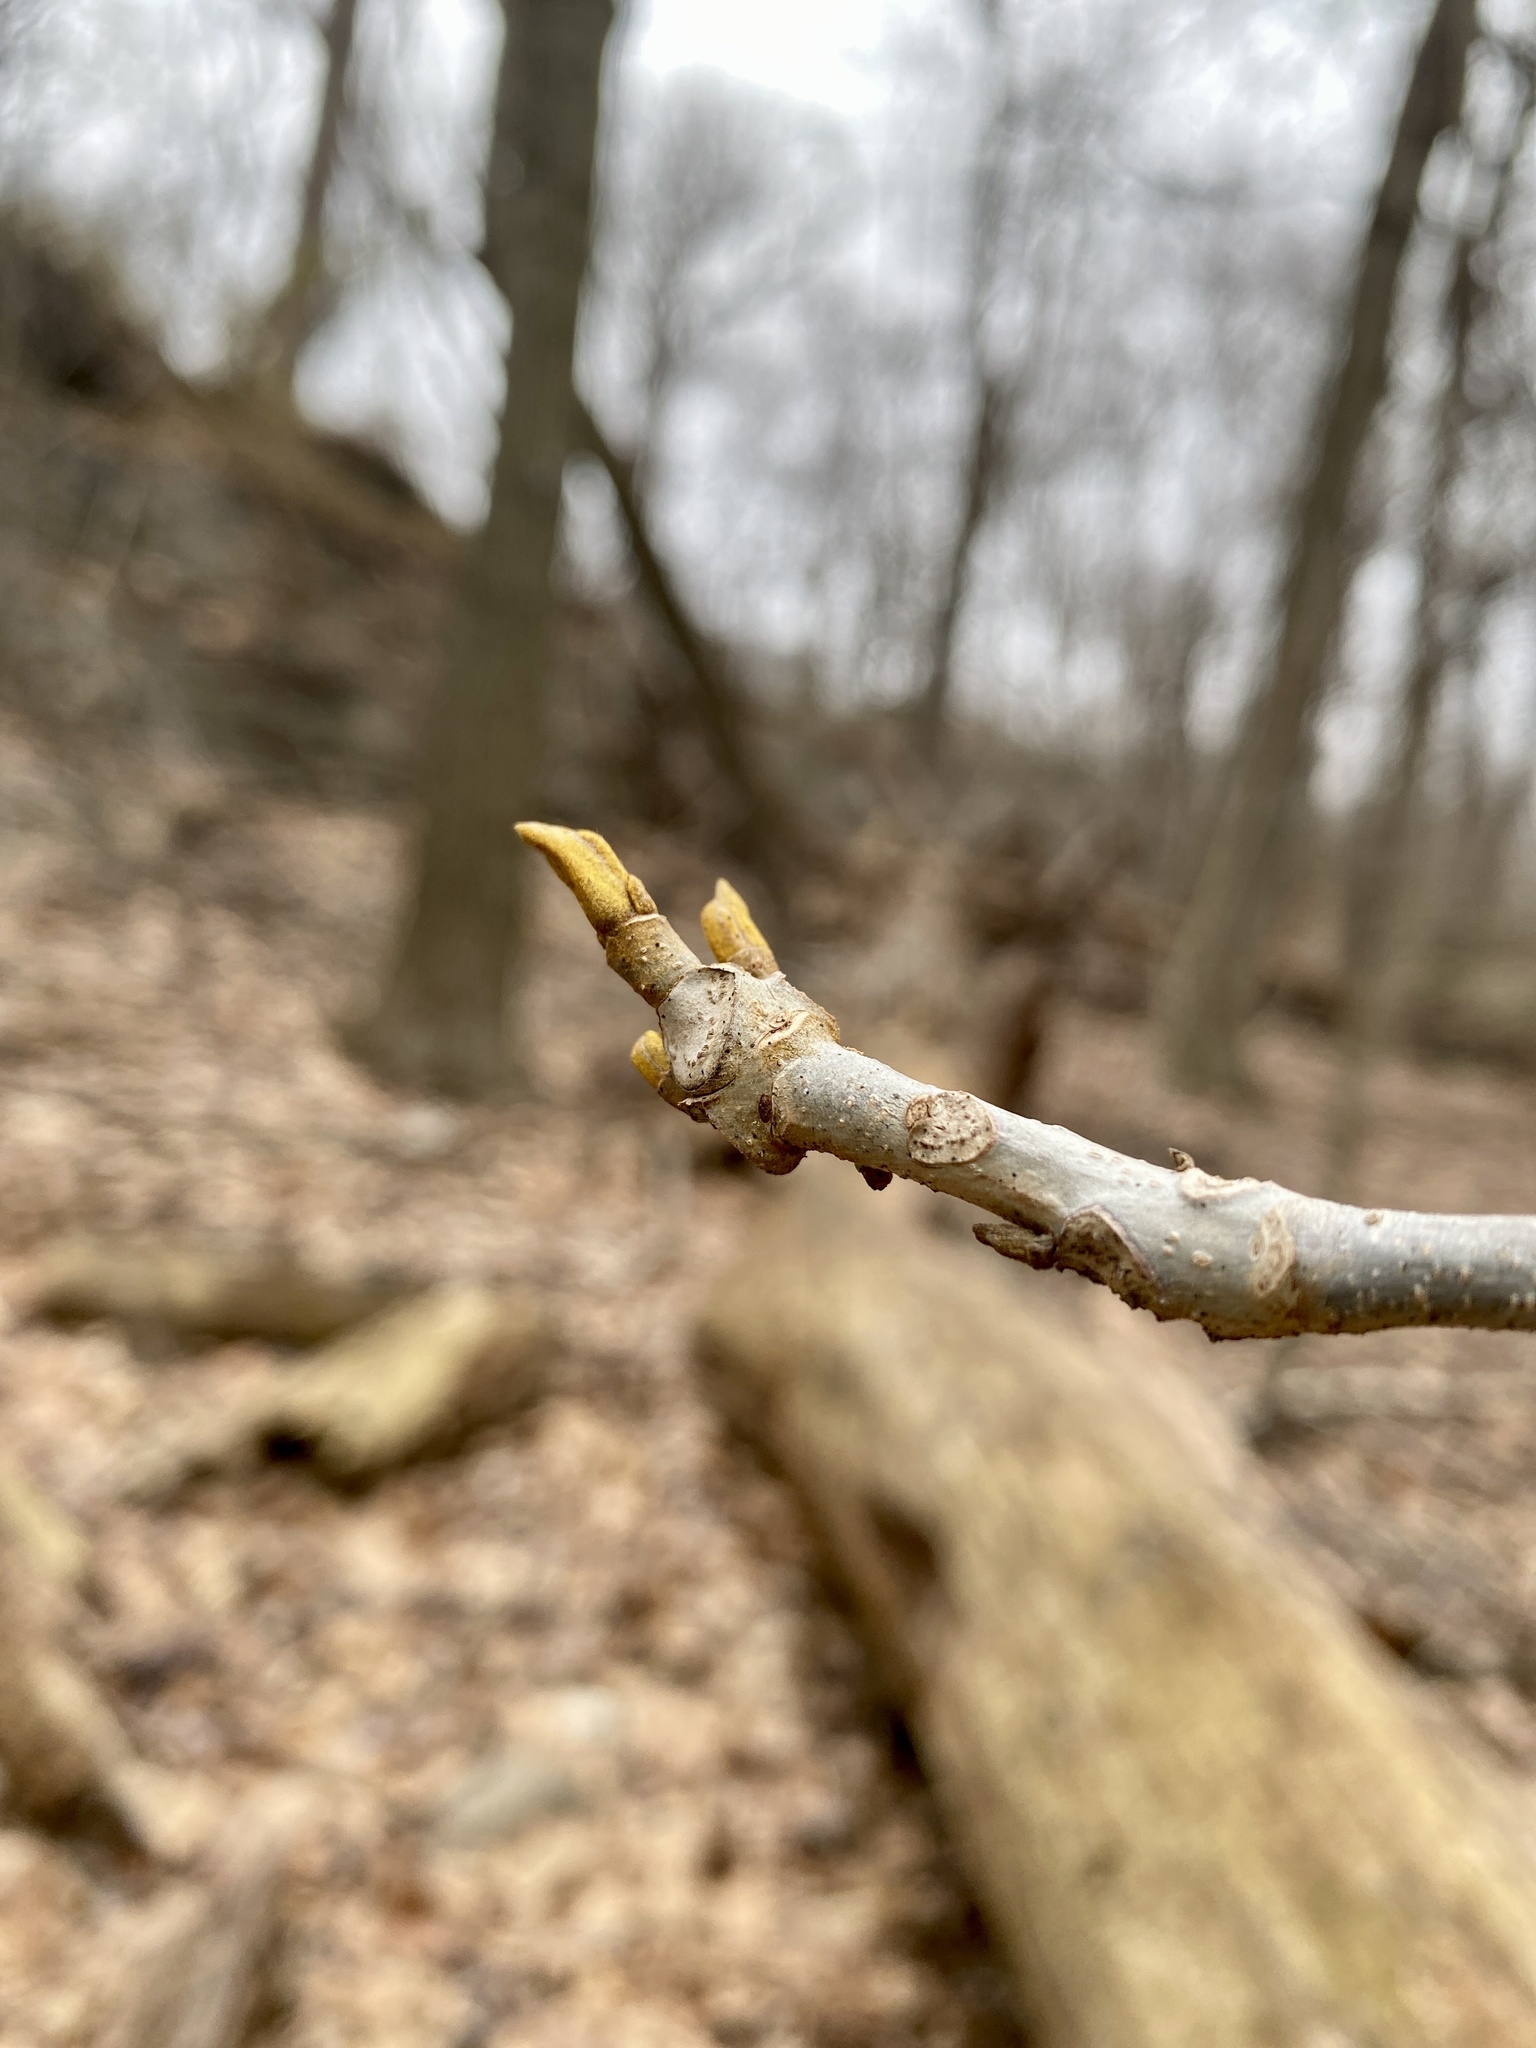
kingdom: Plantae
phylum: Tracheophyta
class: Magnoliopsida
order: Fagales
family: Juglandaceae
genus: Carya
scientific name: Carya cordiformis
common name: Bitternut hickory
